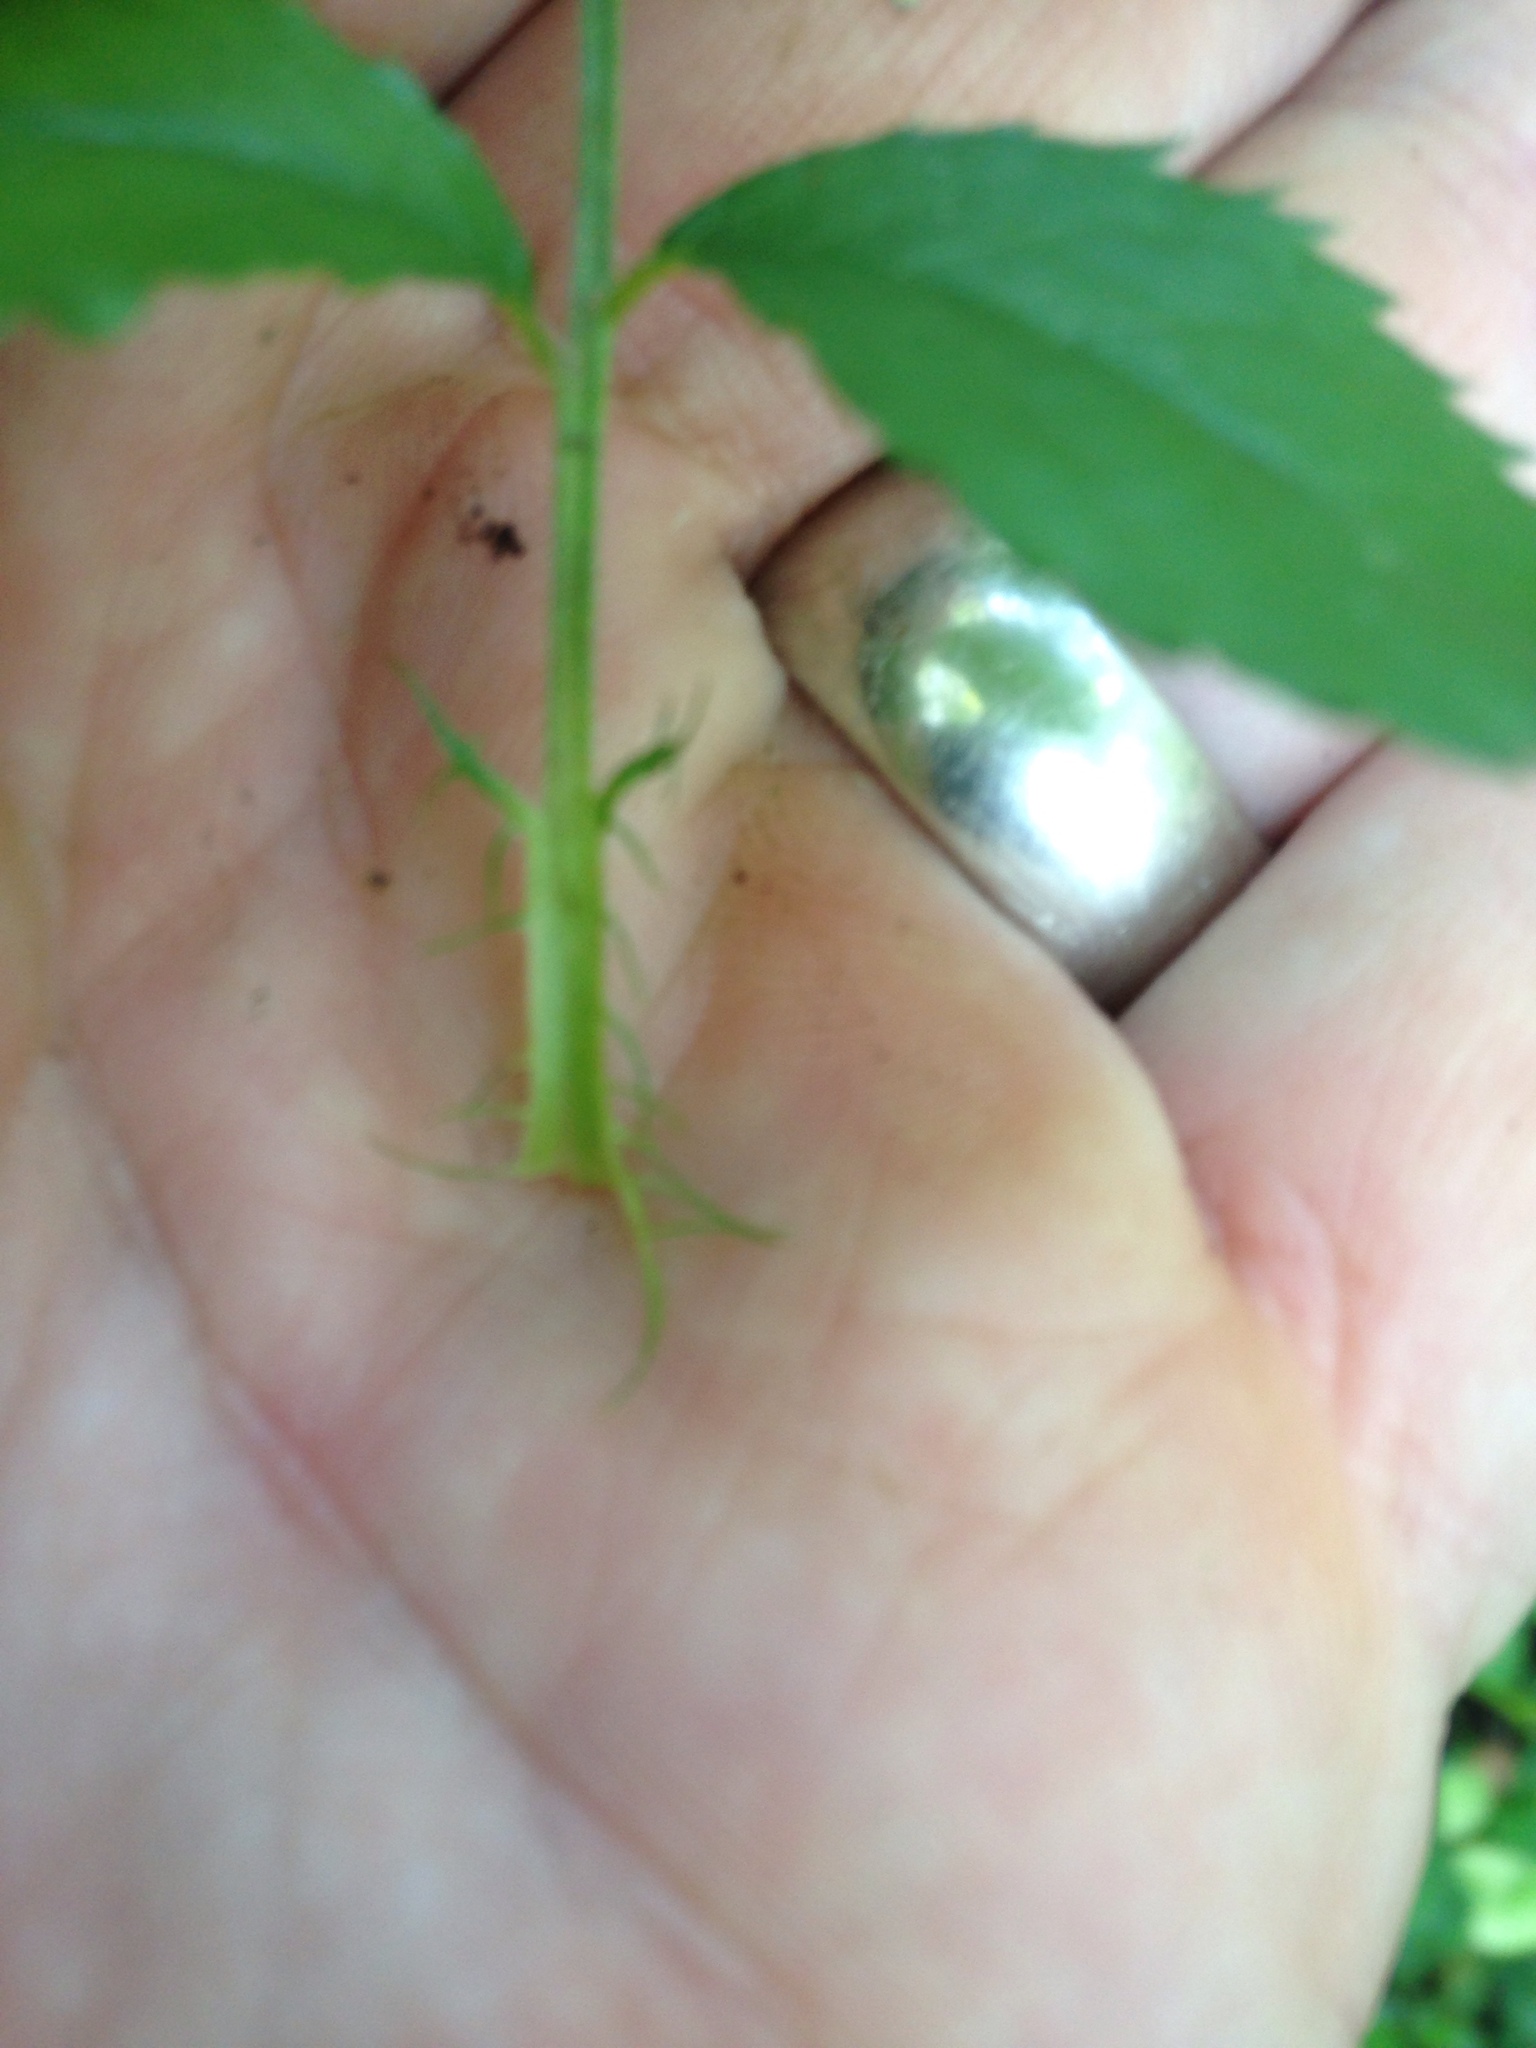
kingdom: Plantae
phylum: Tracheophyta
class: Magnoliopsida
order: Rosales
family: Rosaceae
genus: Rosa
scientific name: Rosa multiflora
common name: Multiflora rose
